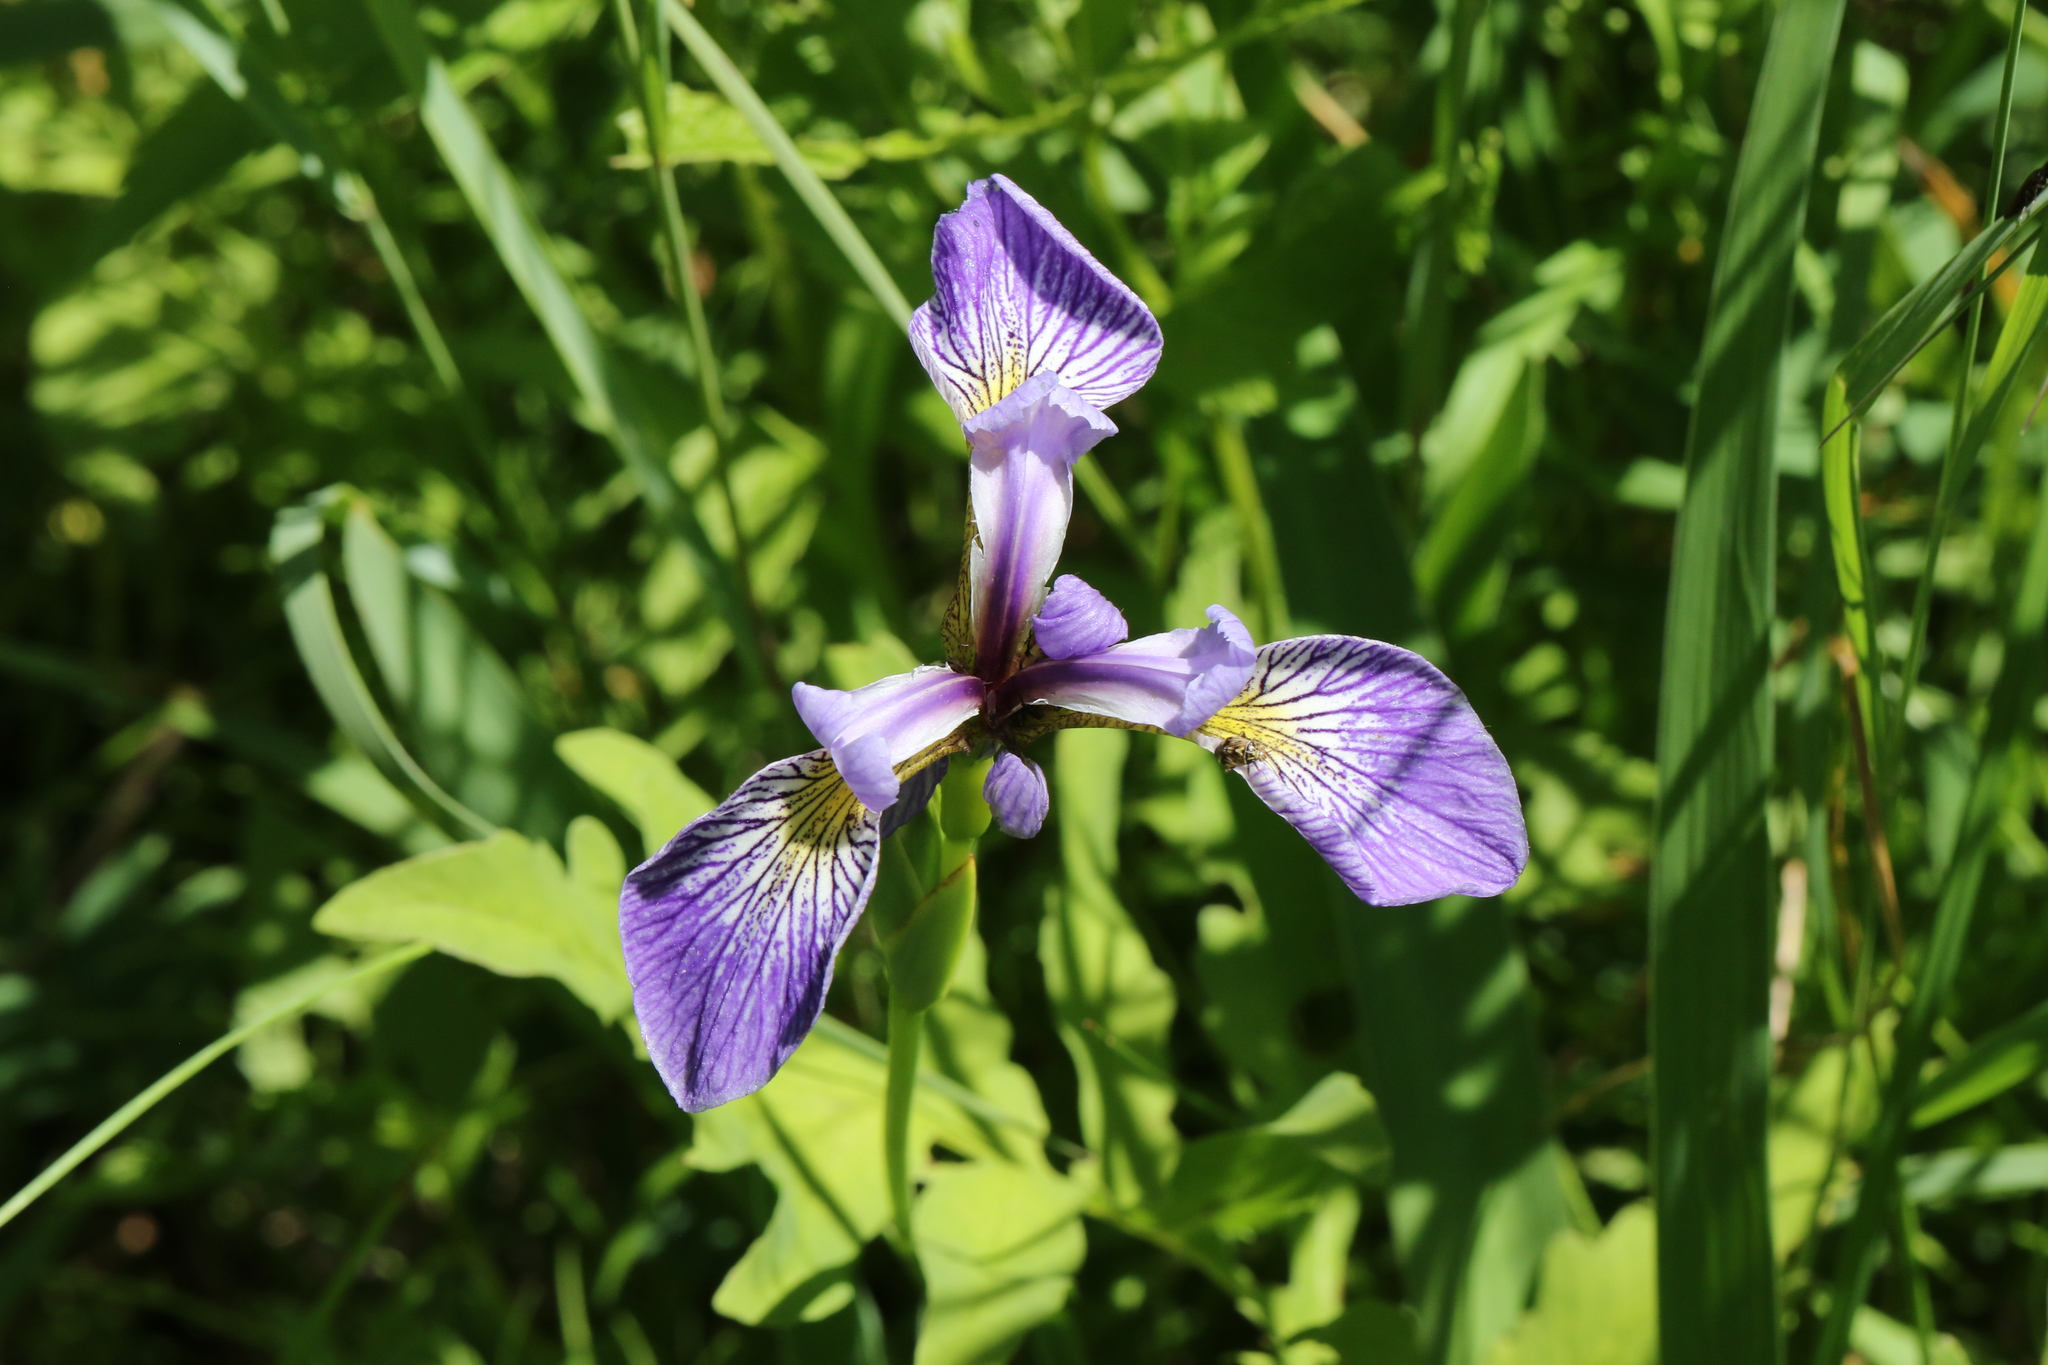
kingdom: Plantae
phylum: Tracheophyta
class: Liliopsida
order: Asparagales
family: Iridaceae
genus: Iris
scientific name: Iris versicolor
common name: Purple iris
